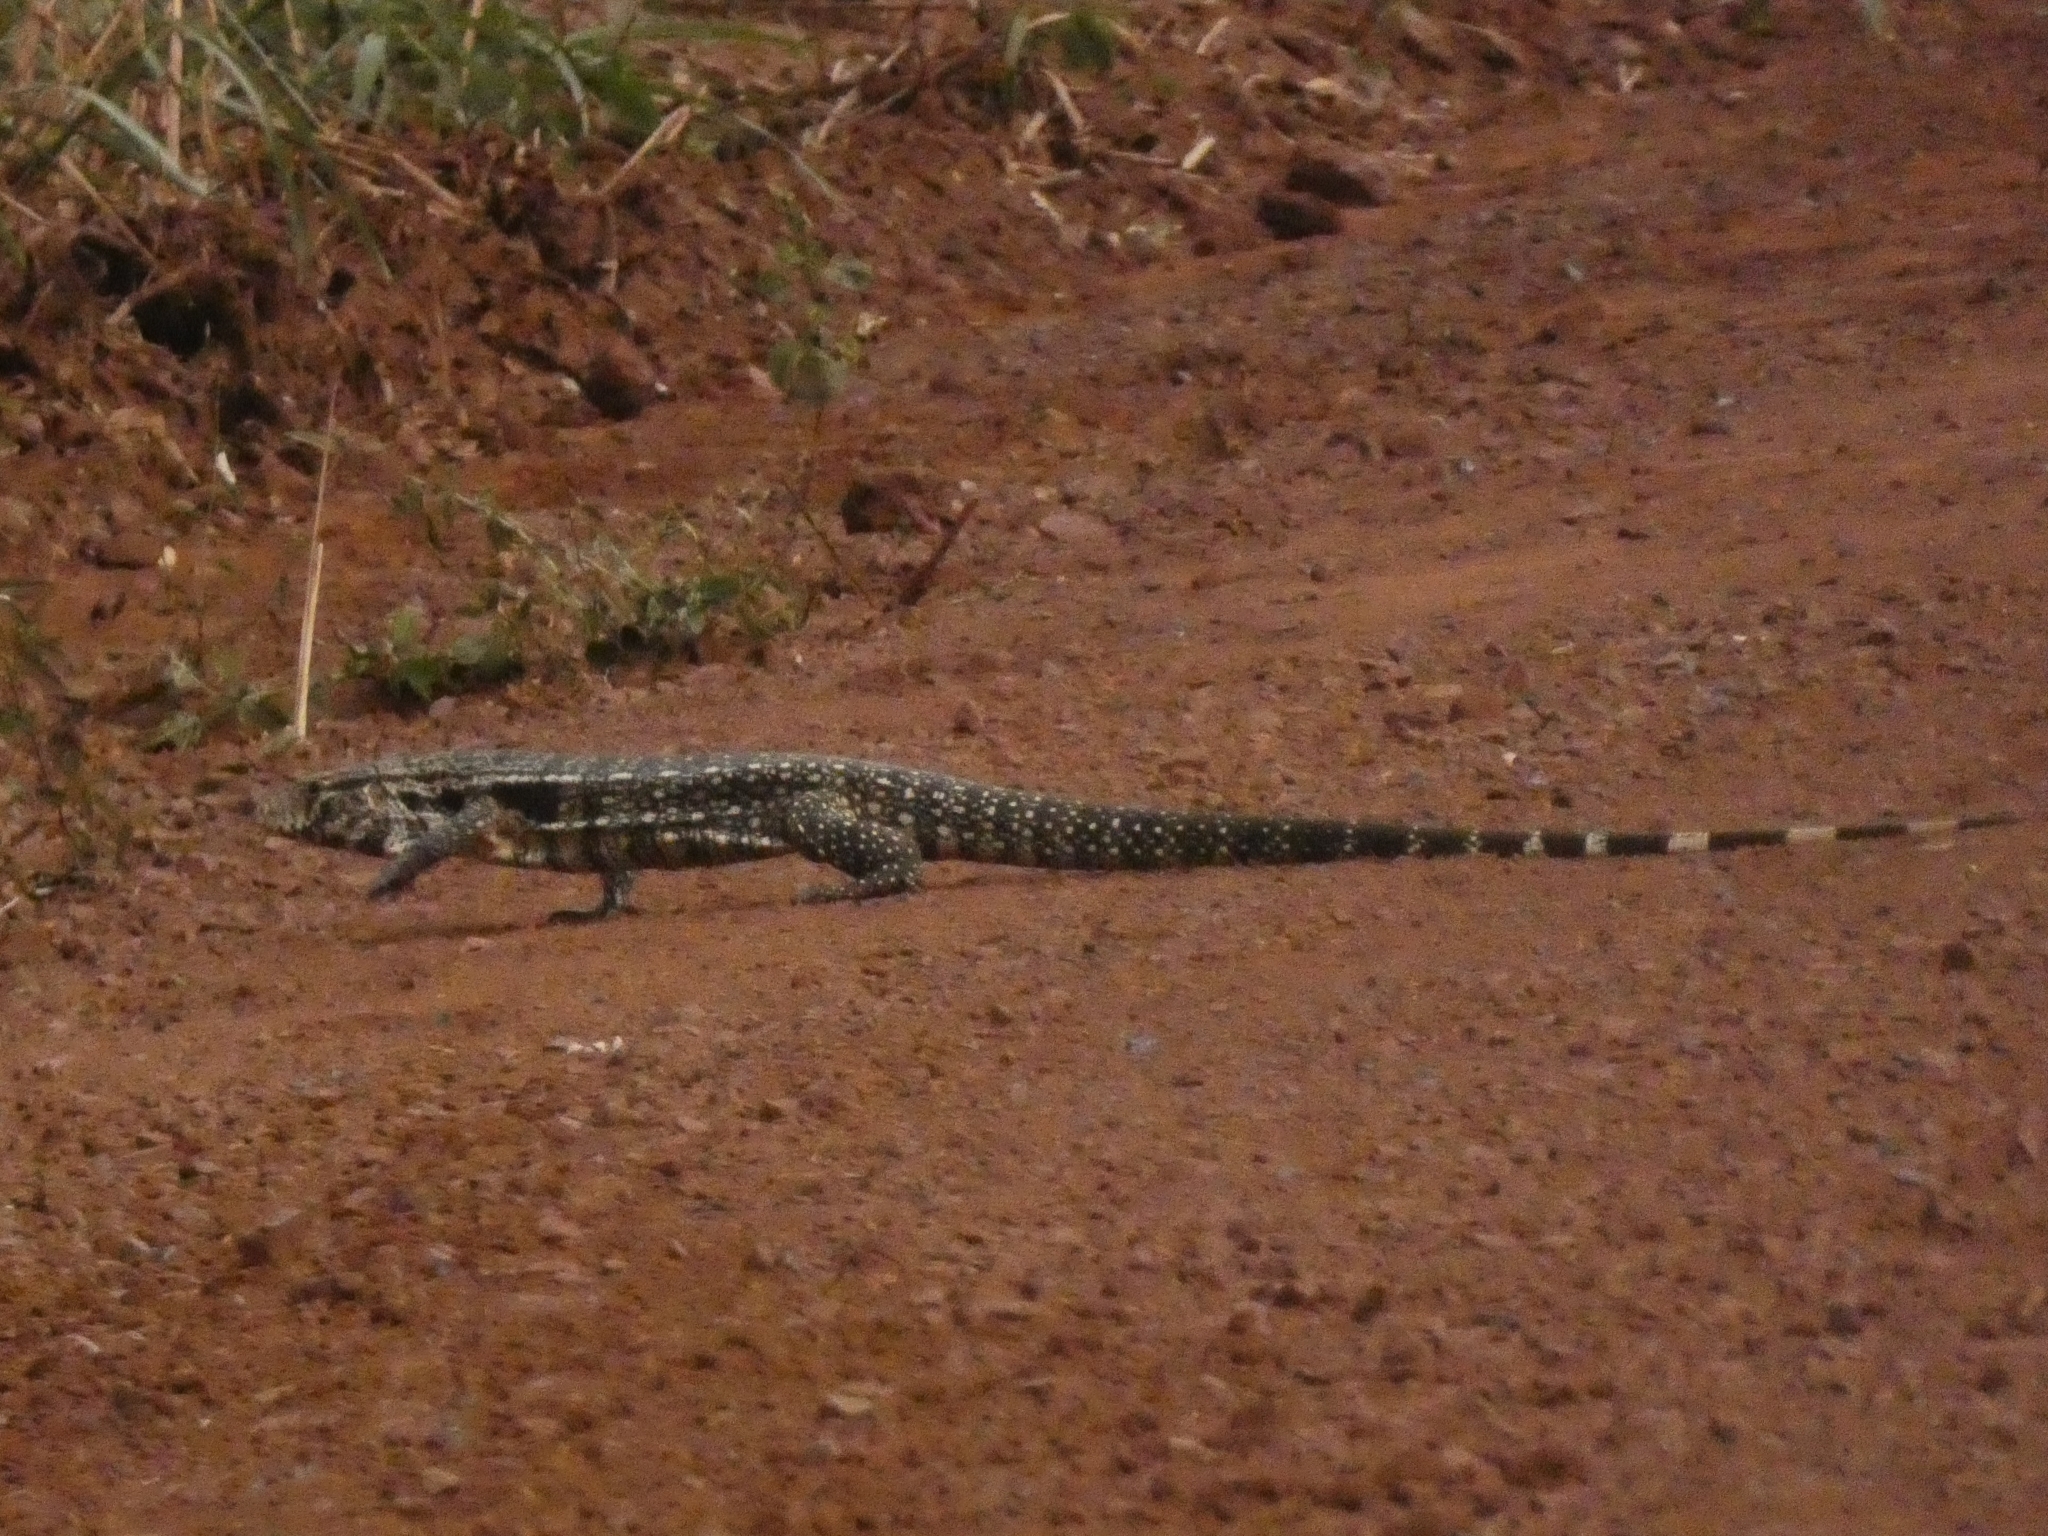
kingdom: Animalia
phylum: Chordata
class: Squamata
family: Teiidae
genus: Salvator
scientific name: Salvator merianae
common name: Argentine black and white tegu
